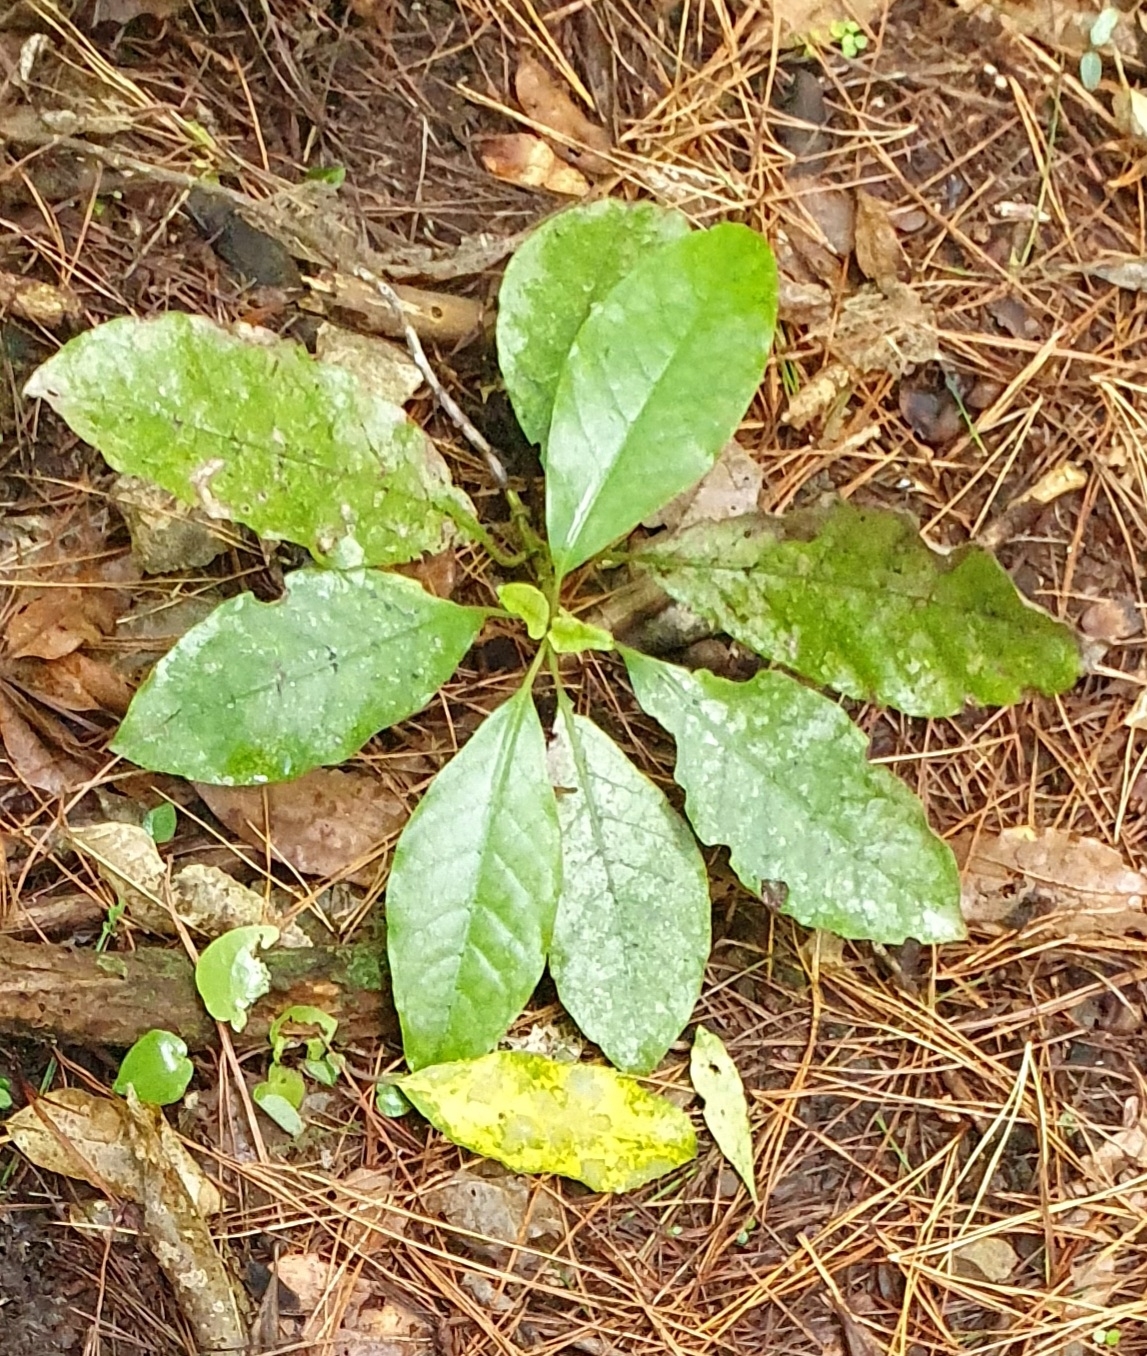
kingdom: Plantae
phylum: Tracheophyta
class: Magnoliopsida
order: Gentianales
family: Rubiaceae
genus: Coprosma
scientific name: Coprosma autumnalis
